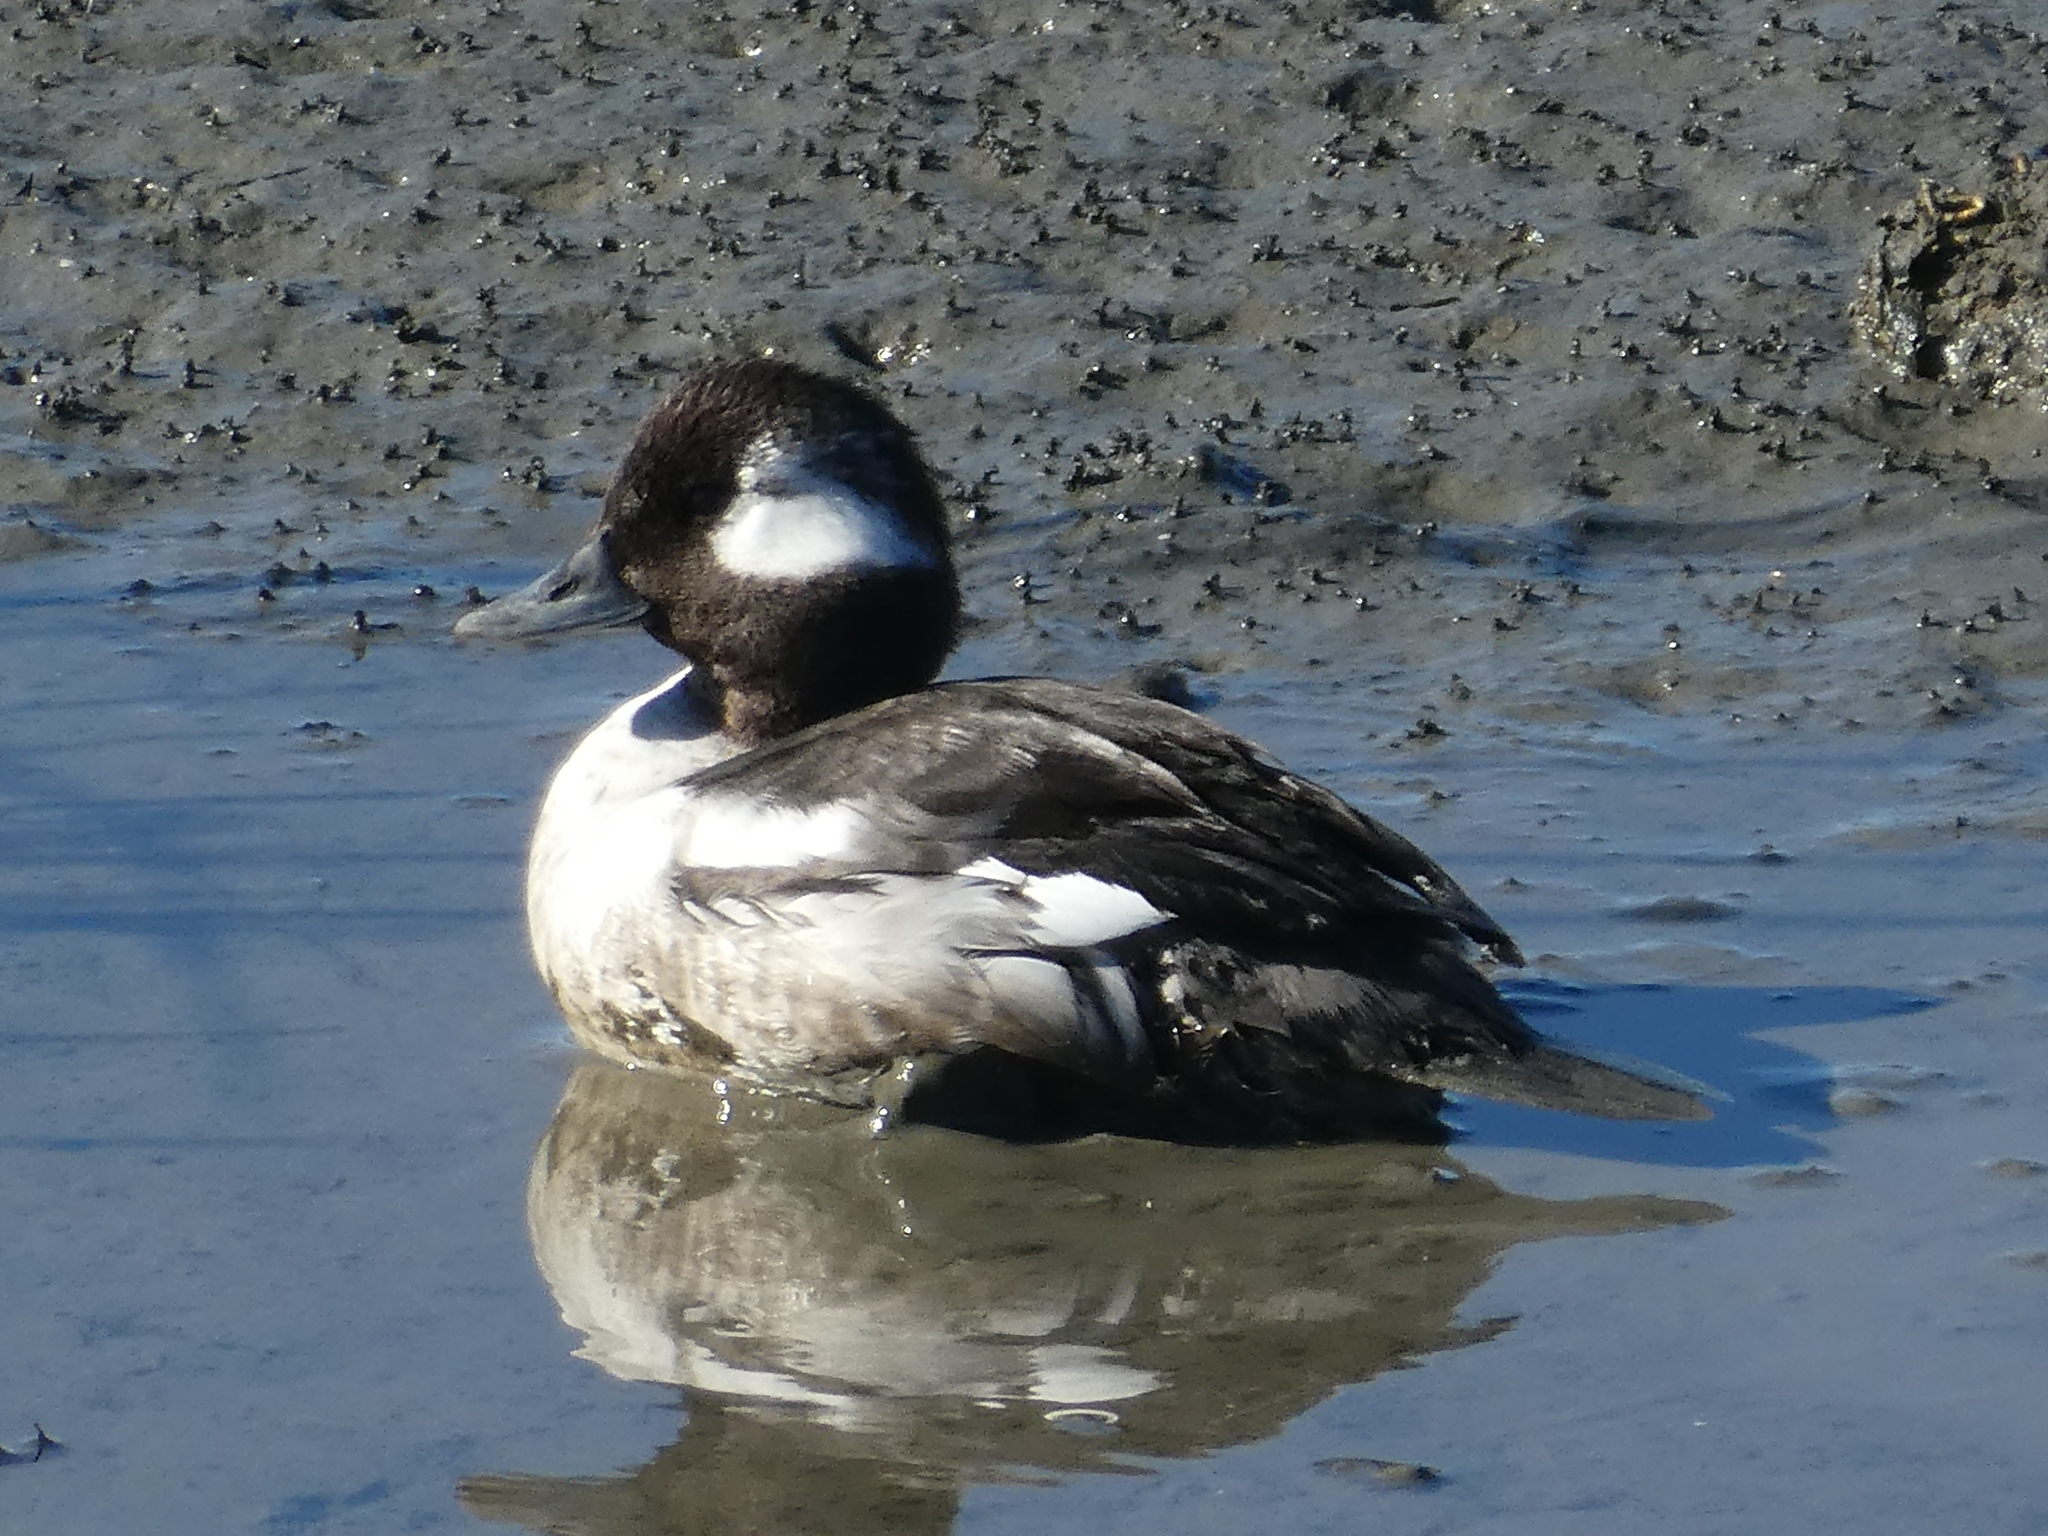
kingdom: Animalia
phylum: Chordata
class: Aves
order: Anseriformes
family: Anatidae
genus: Bucephala
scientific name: Bucephala albeola
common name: Bufflehead
